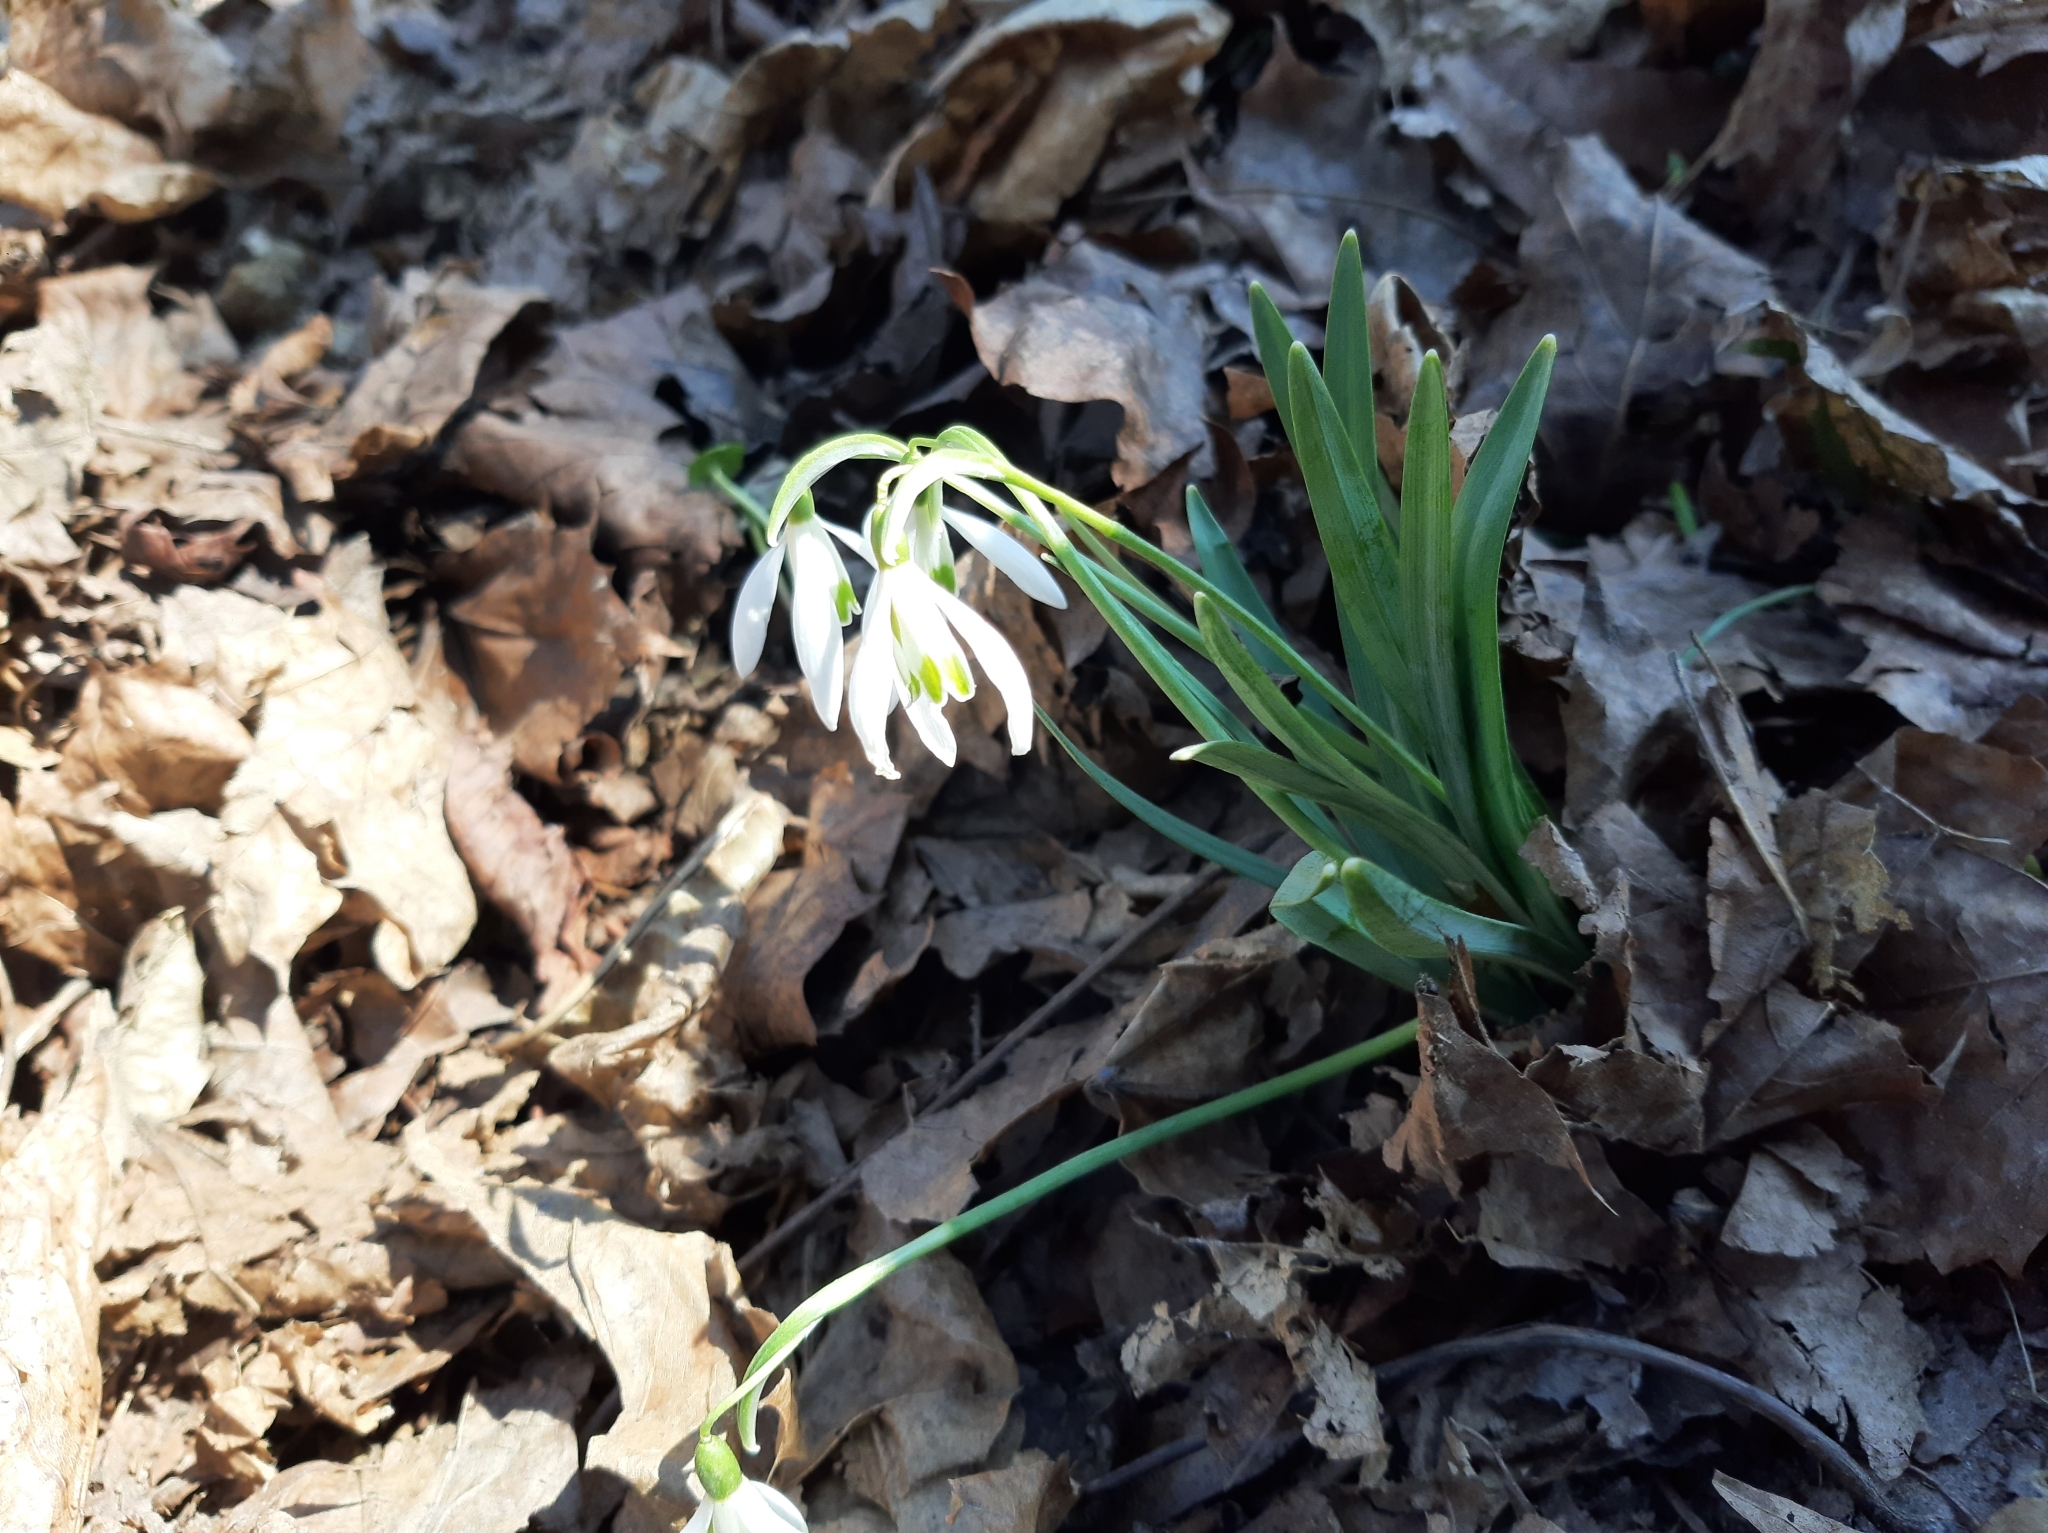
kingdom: Plantae
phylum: Tracheophyta
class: Liliopsida
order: Asparagales
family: Amaryllidaceae
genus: Galanthus
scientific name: Galanthus nivalis
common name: Snowdrop
